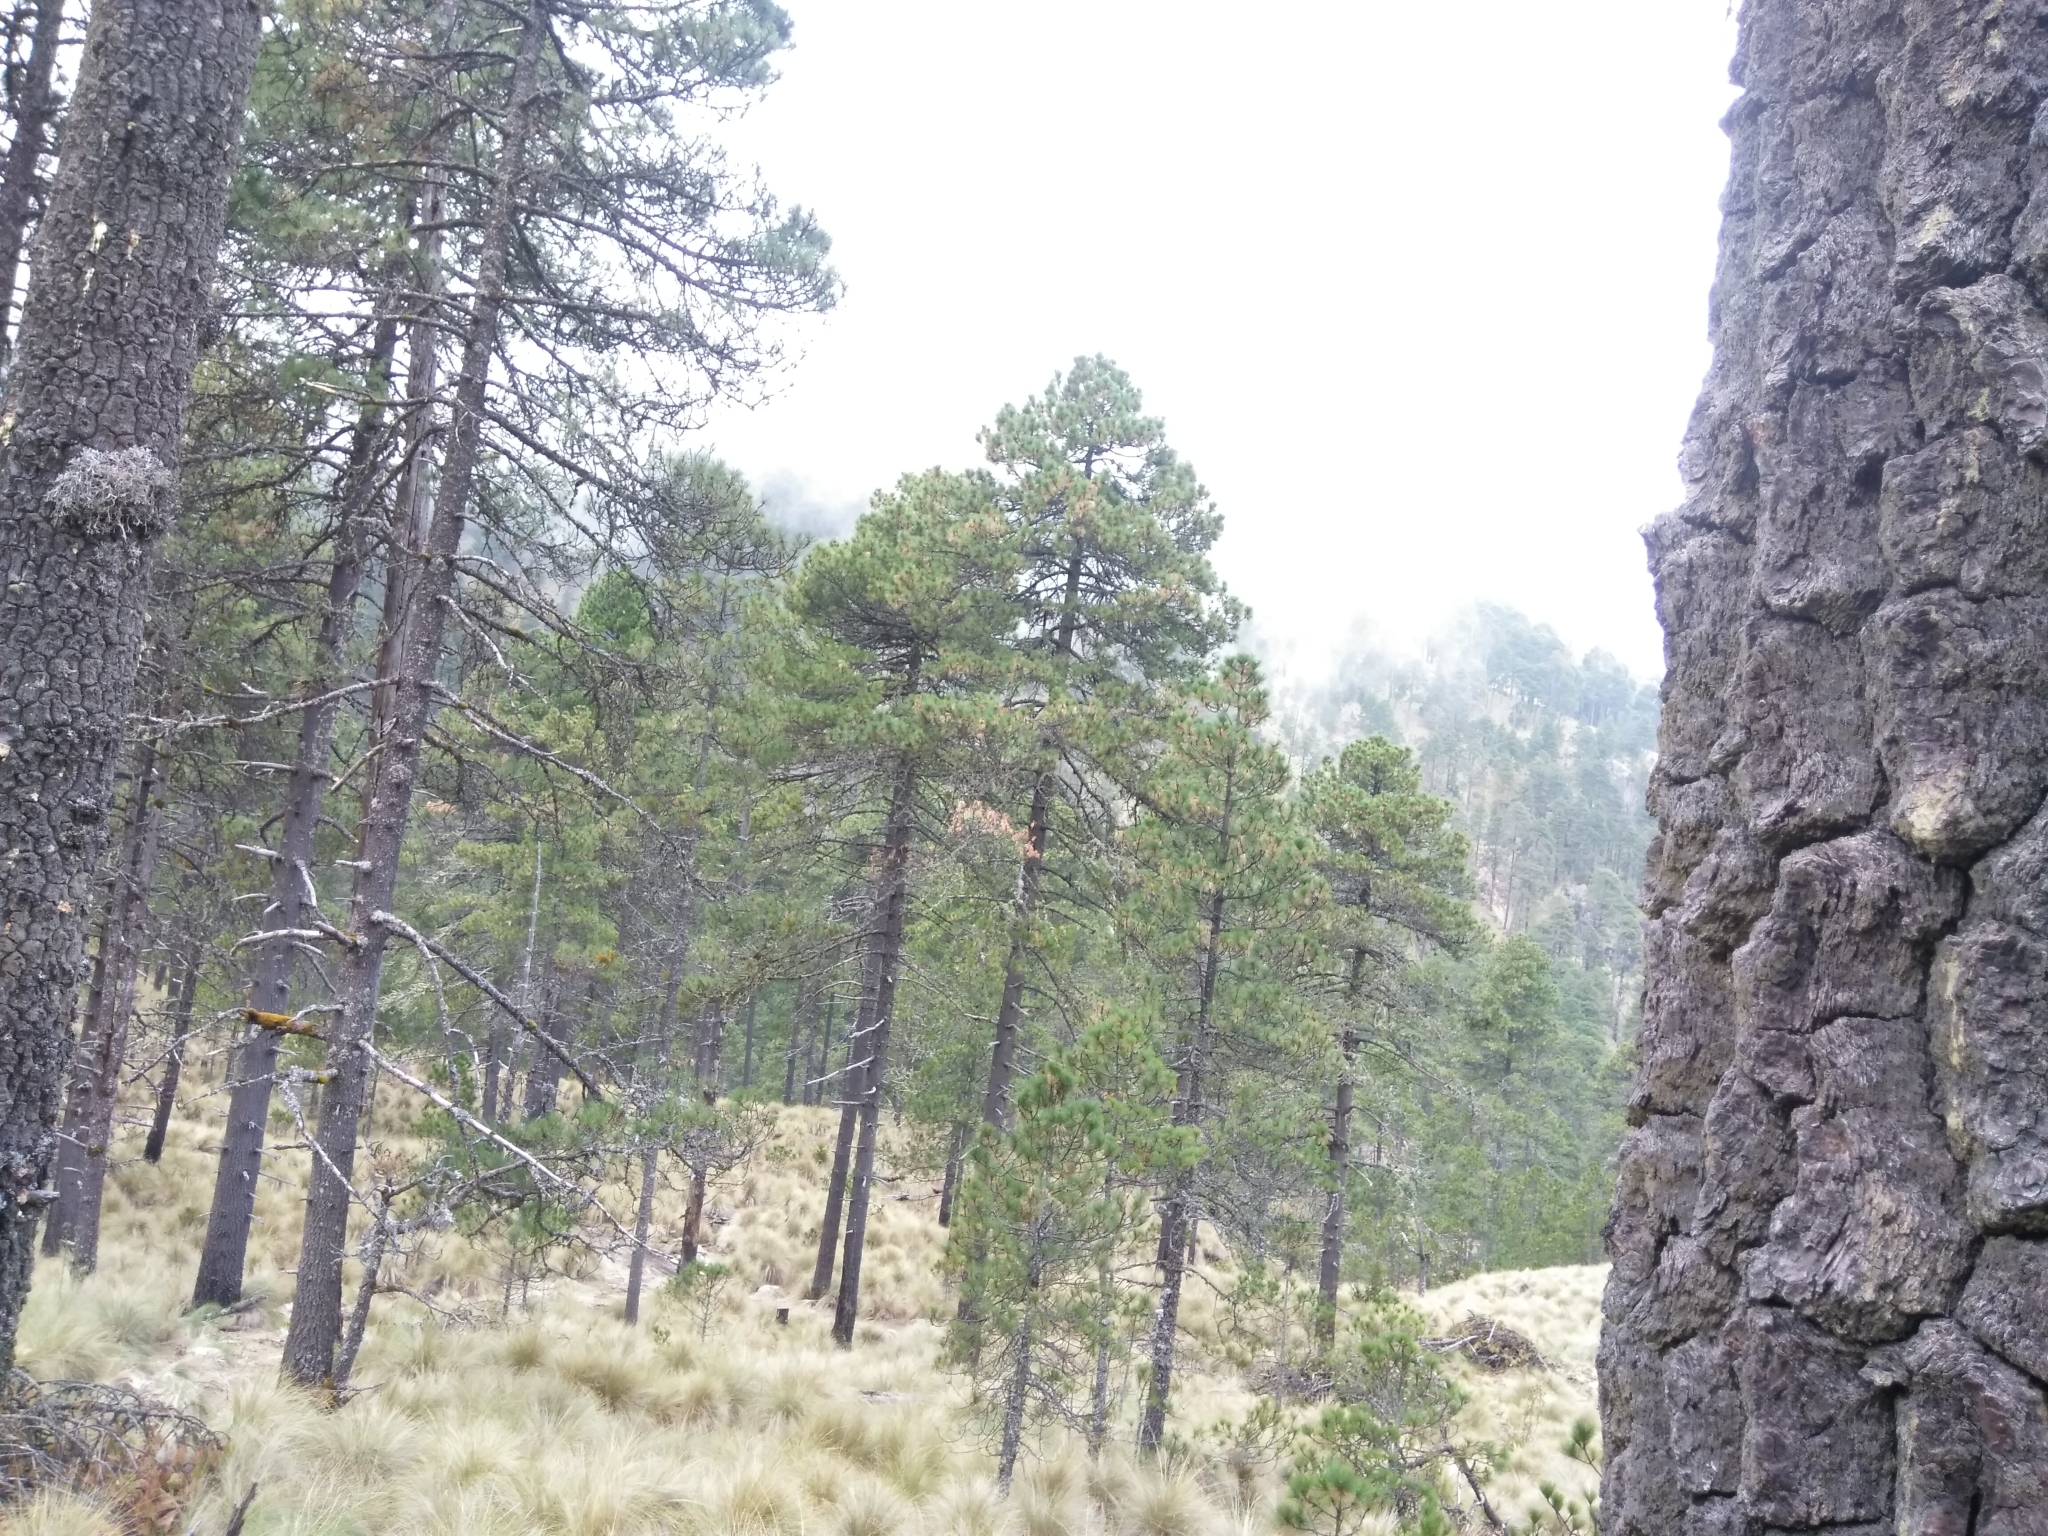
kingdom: Plantae
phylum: Tracheophyta
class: Pinopsida
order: Pinales
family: Pinaceae
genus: Pinus
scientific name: Pinus hartwegii
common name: Hartweg's pine
